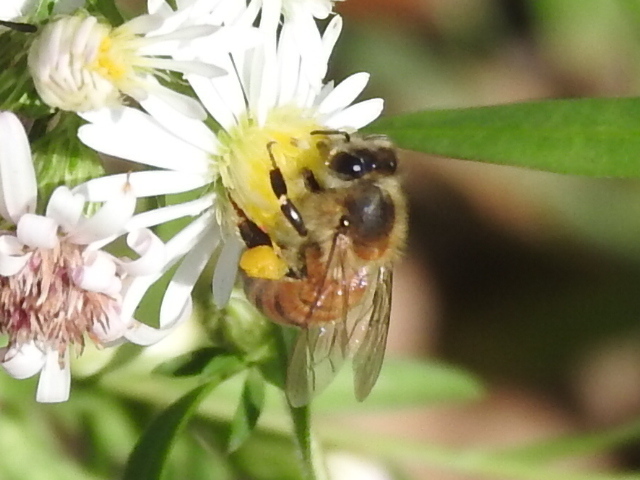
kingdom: Animalia
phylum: Arthropoda
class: Insecta
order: Hymenoptera
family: Apidae
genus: Apis
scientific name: Apis mellifera
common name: Honey bee
